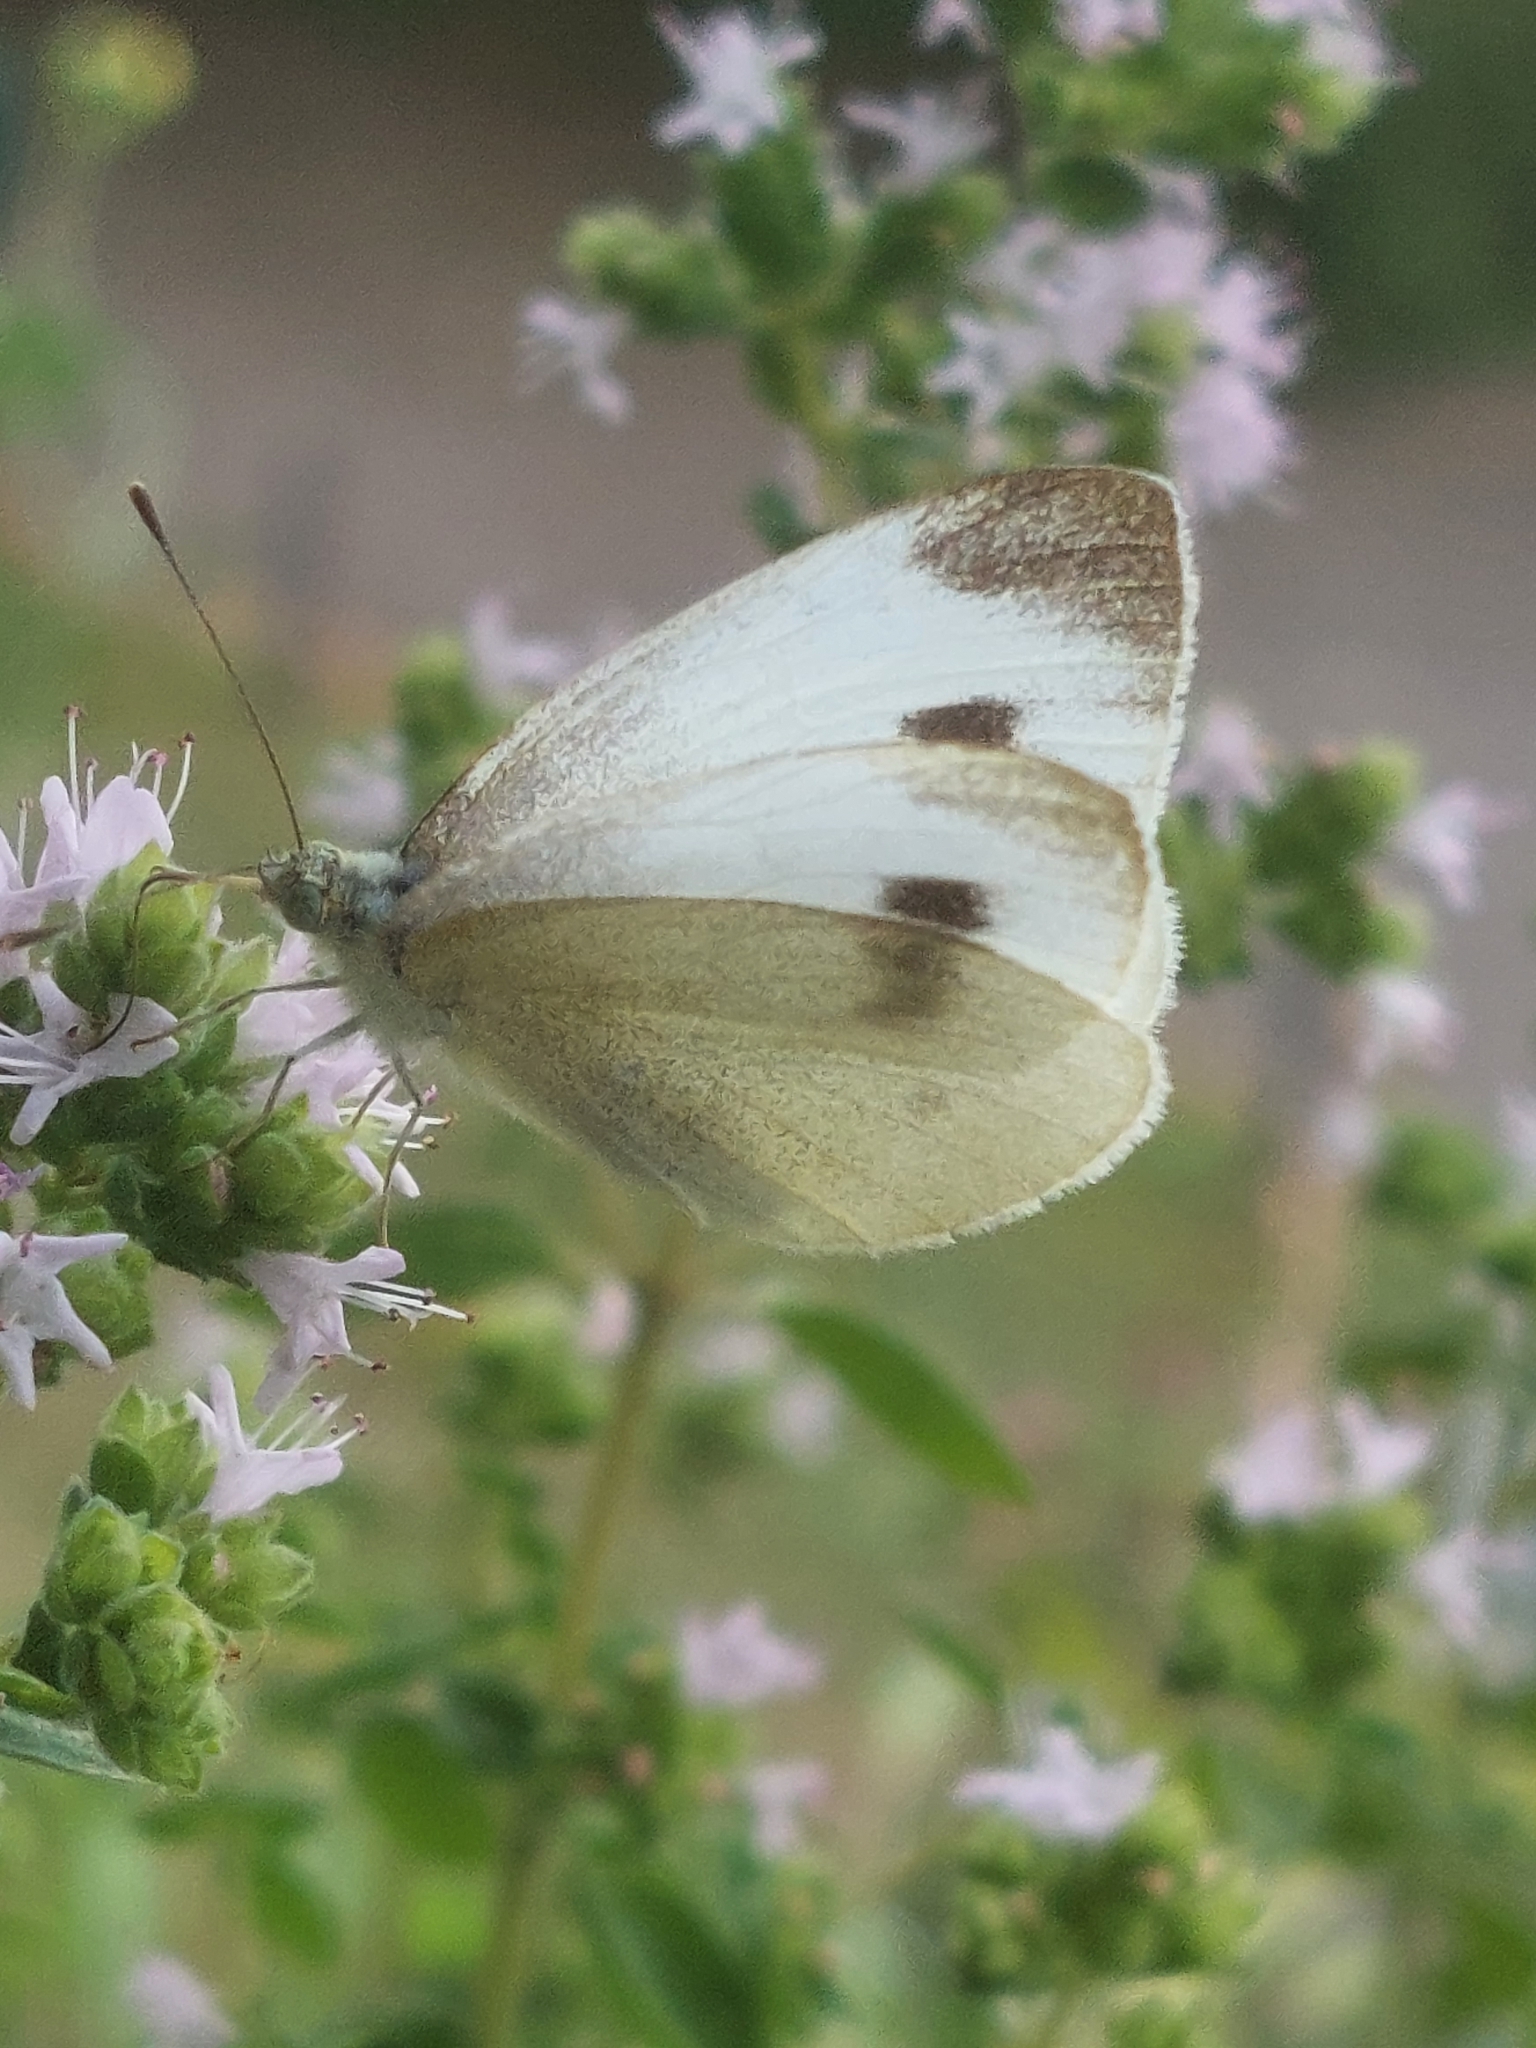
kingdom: Animalia
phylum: Arthropoda
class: Insecta
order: Lepidoptera
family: Pieridae
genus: Pieris
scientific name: Pieris mannii
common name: Southern small white
